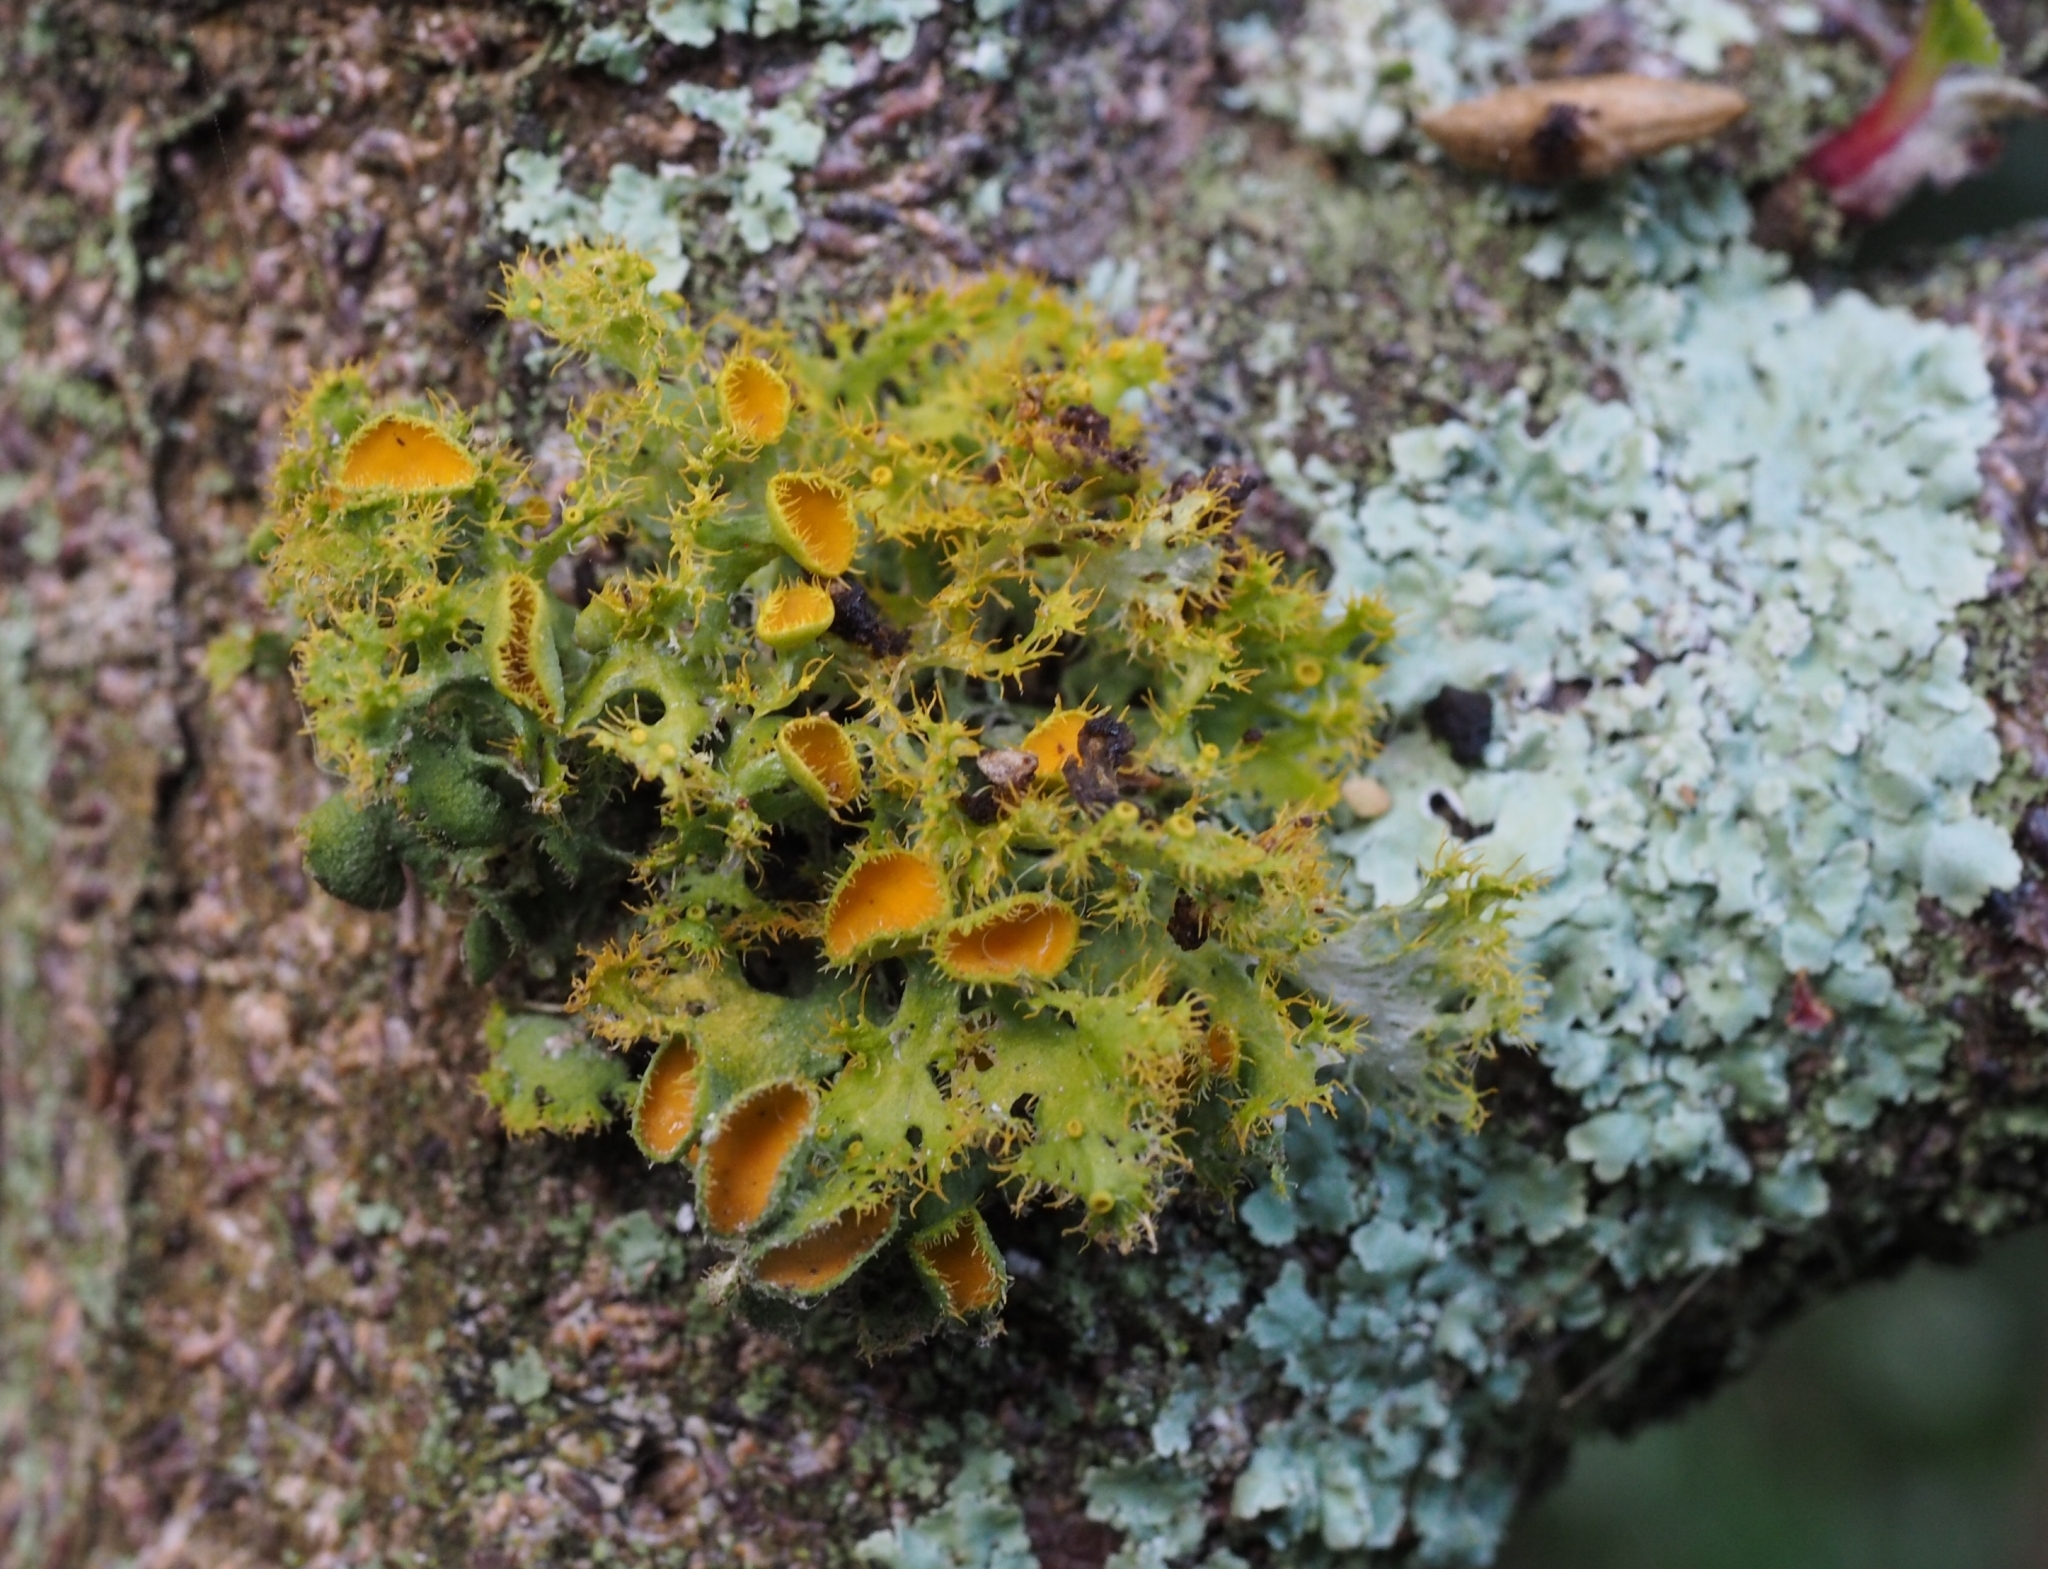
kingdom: Fungi
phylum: Ascomycota
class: Lecanoromycetes
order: Teloschistales
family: Teloschistaceae
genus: Niorma
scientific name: Niorma chrysophthalma
